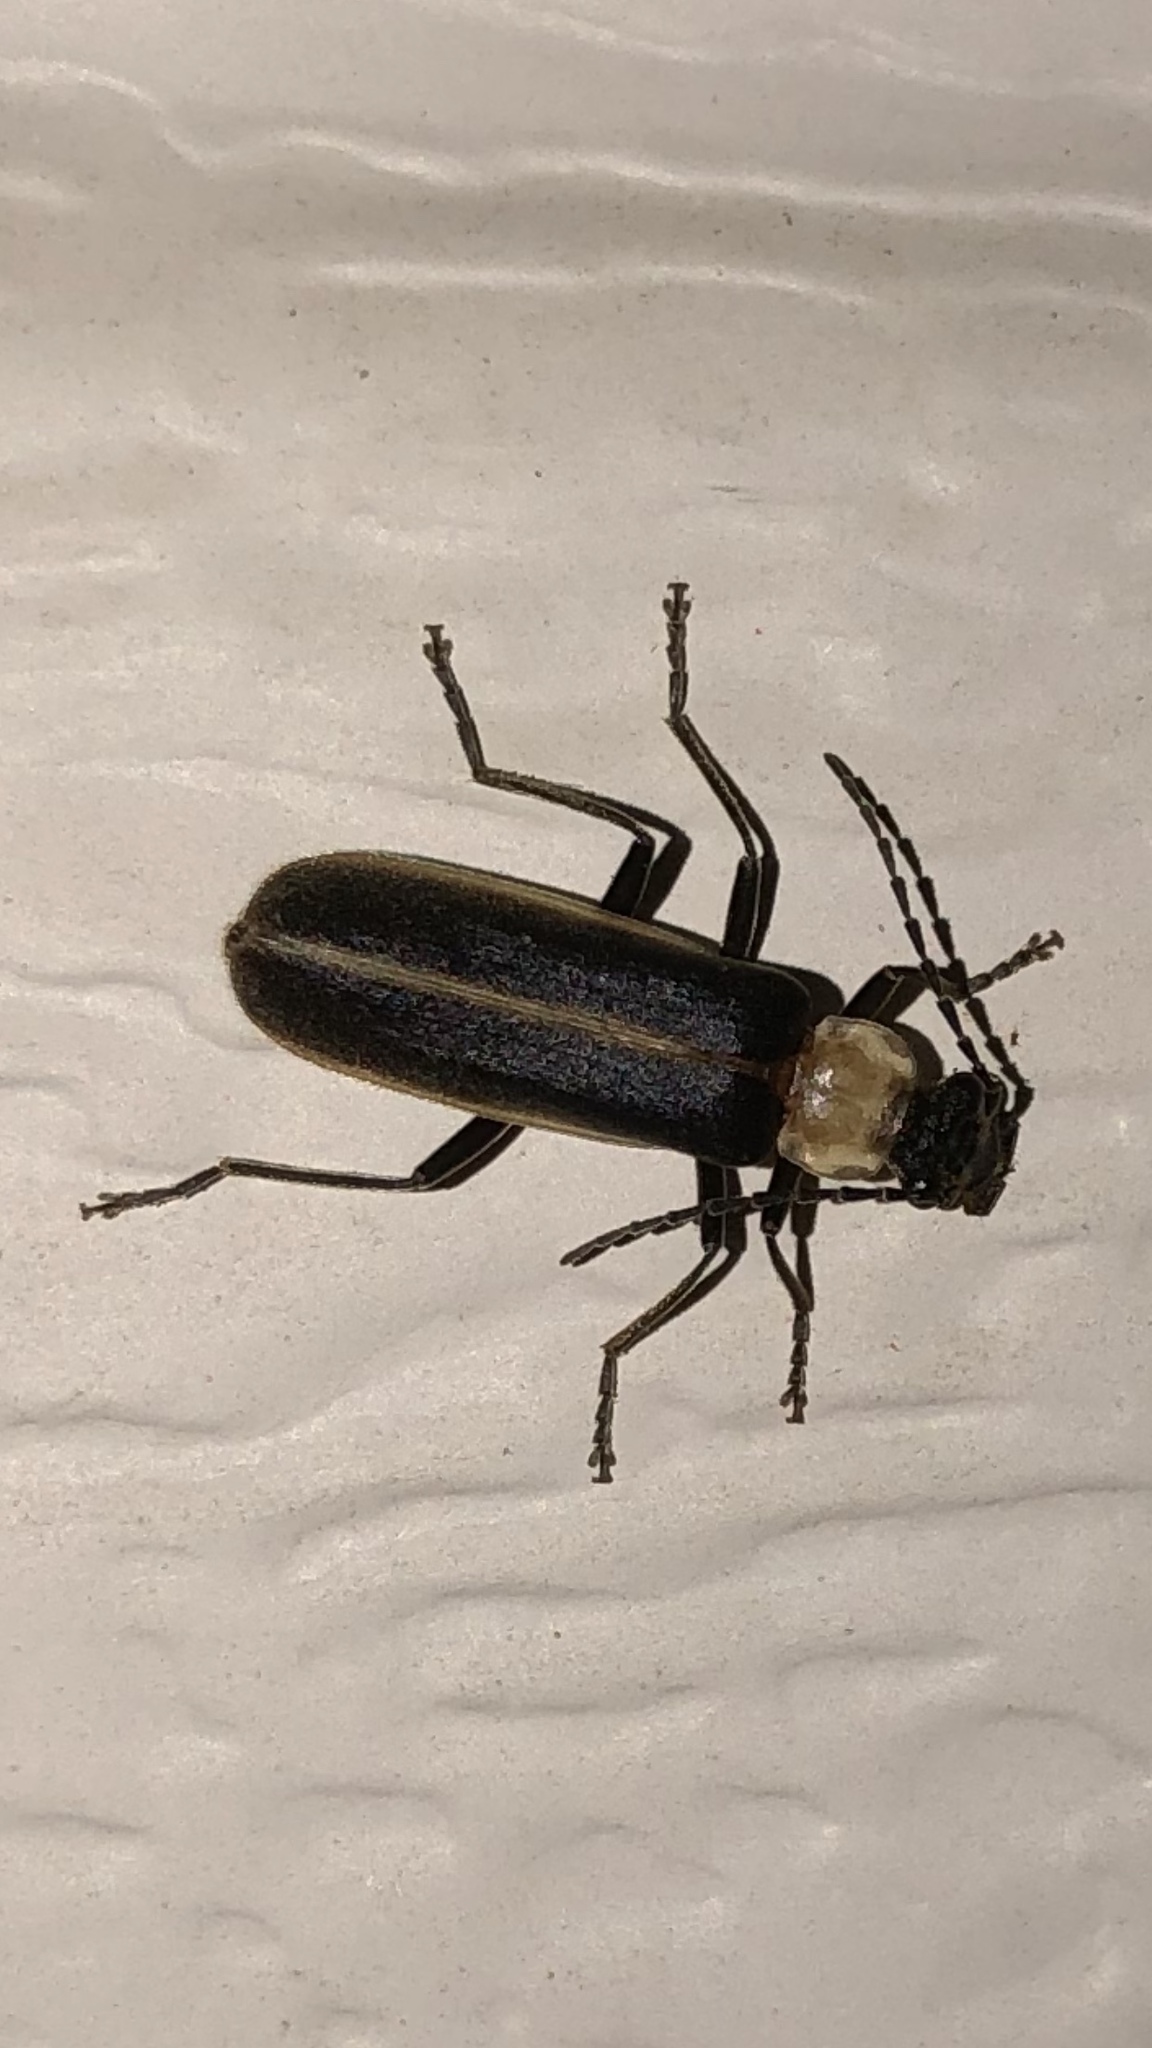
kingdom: Animalia
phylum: Arthropoda
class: Insecta
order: Coleoptera
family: Cantharidae
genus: Podabrus
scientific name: Podabrus flavicollis
